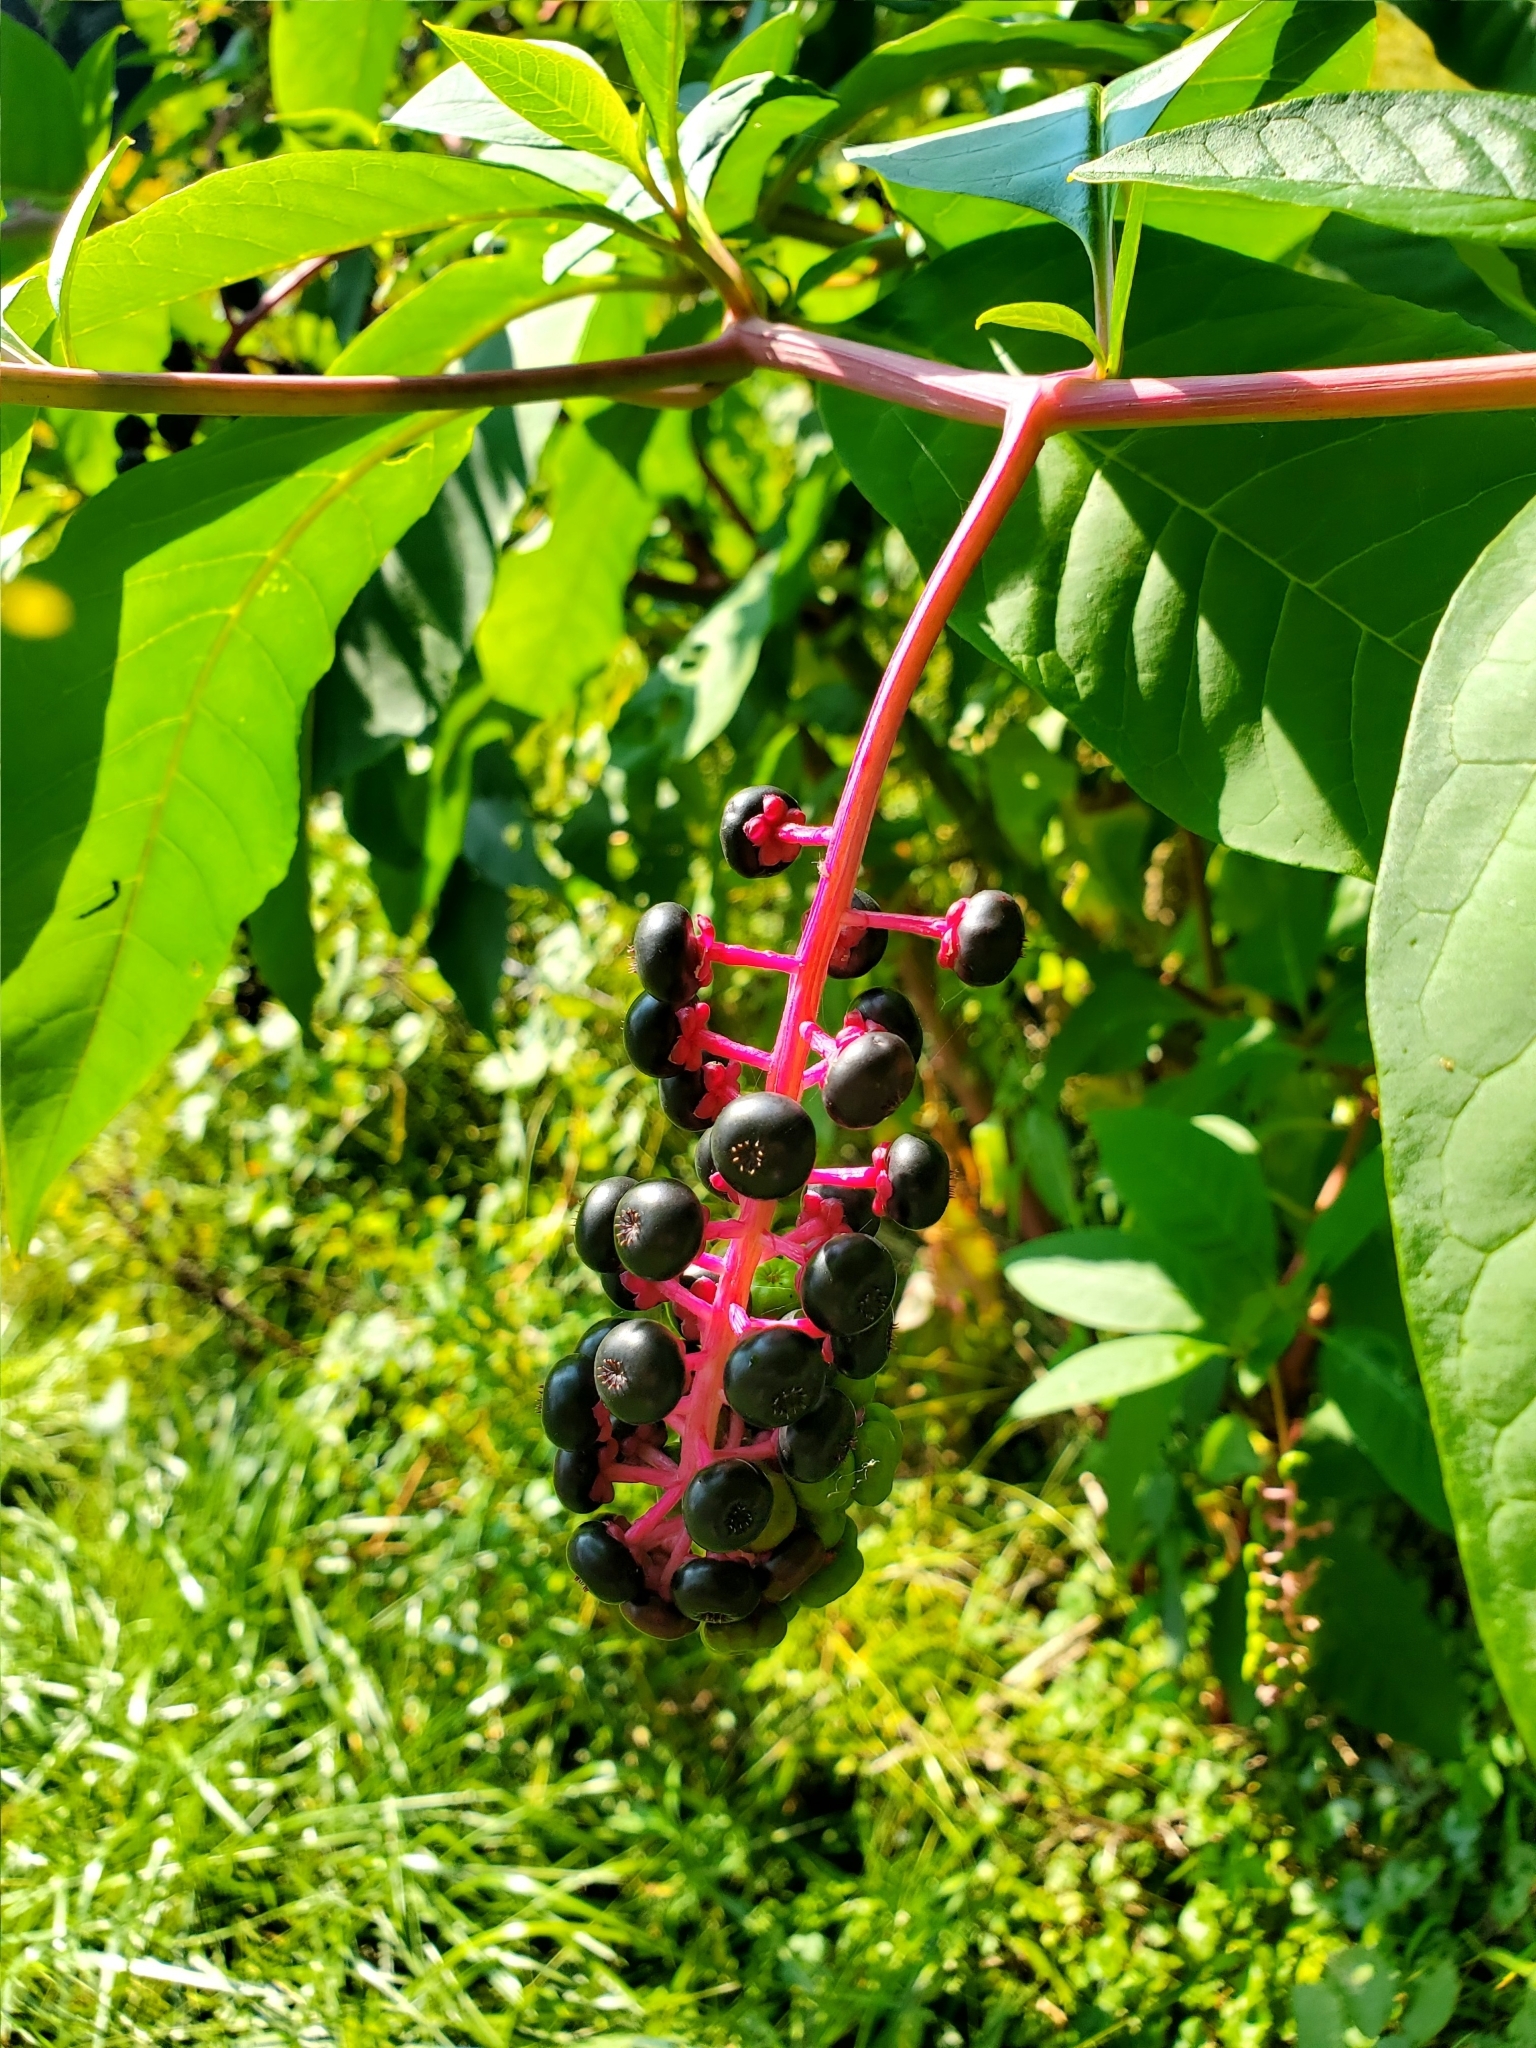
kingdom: Plantae
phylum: Tracheophyta
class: Magnoliopsida
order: Caryophyllales
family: Phytolaccaceae
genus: Phytolacca
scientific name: Phytolacca americana
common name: American pokeweed
